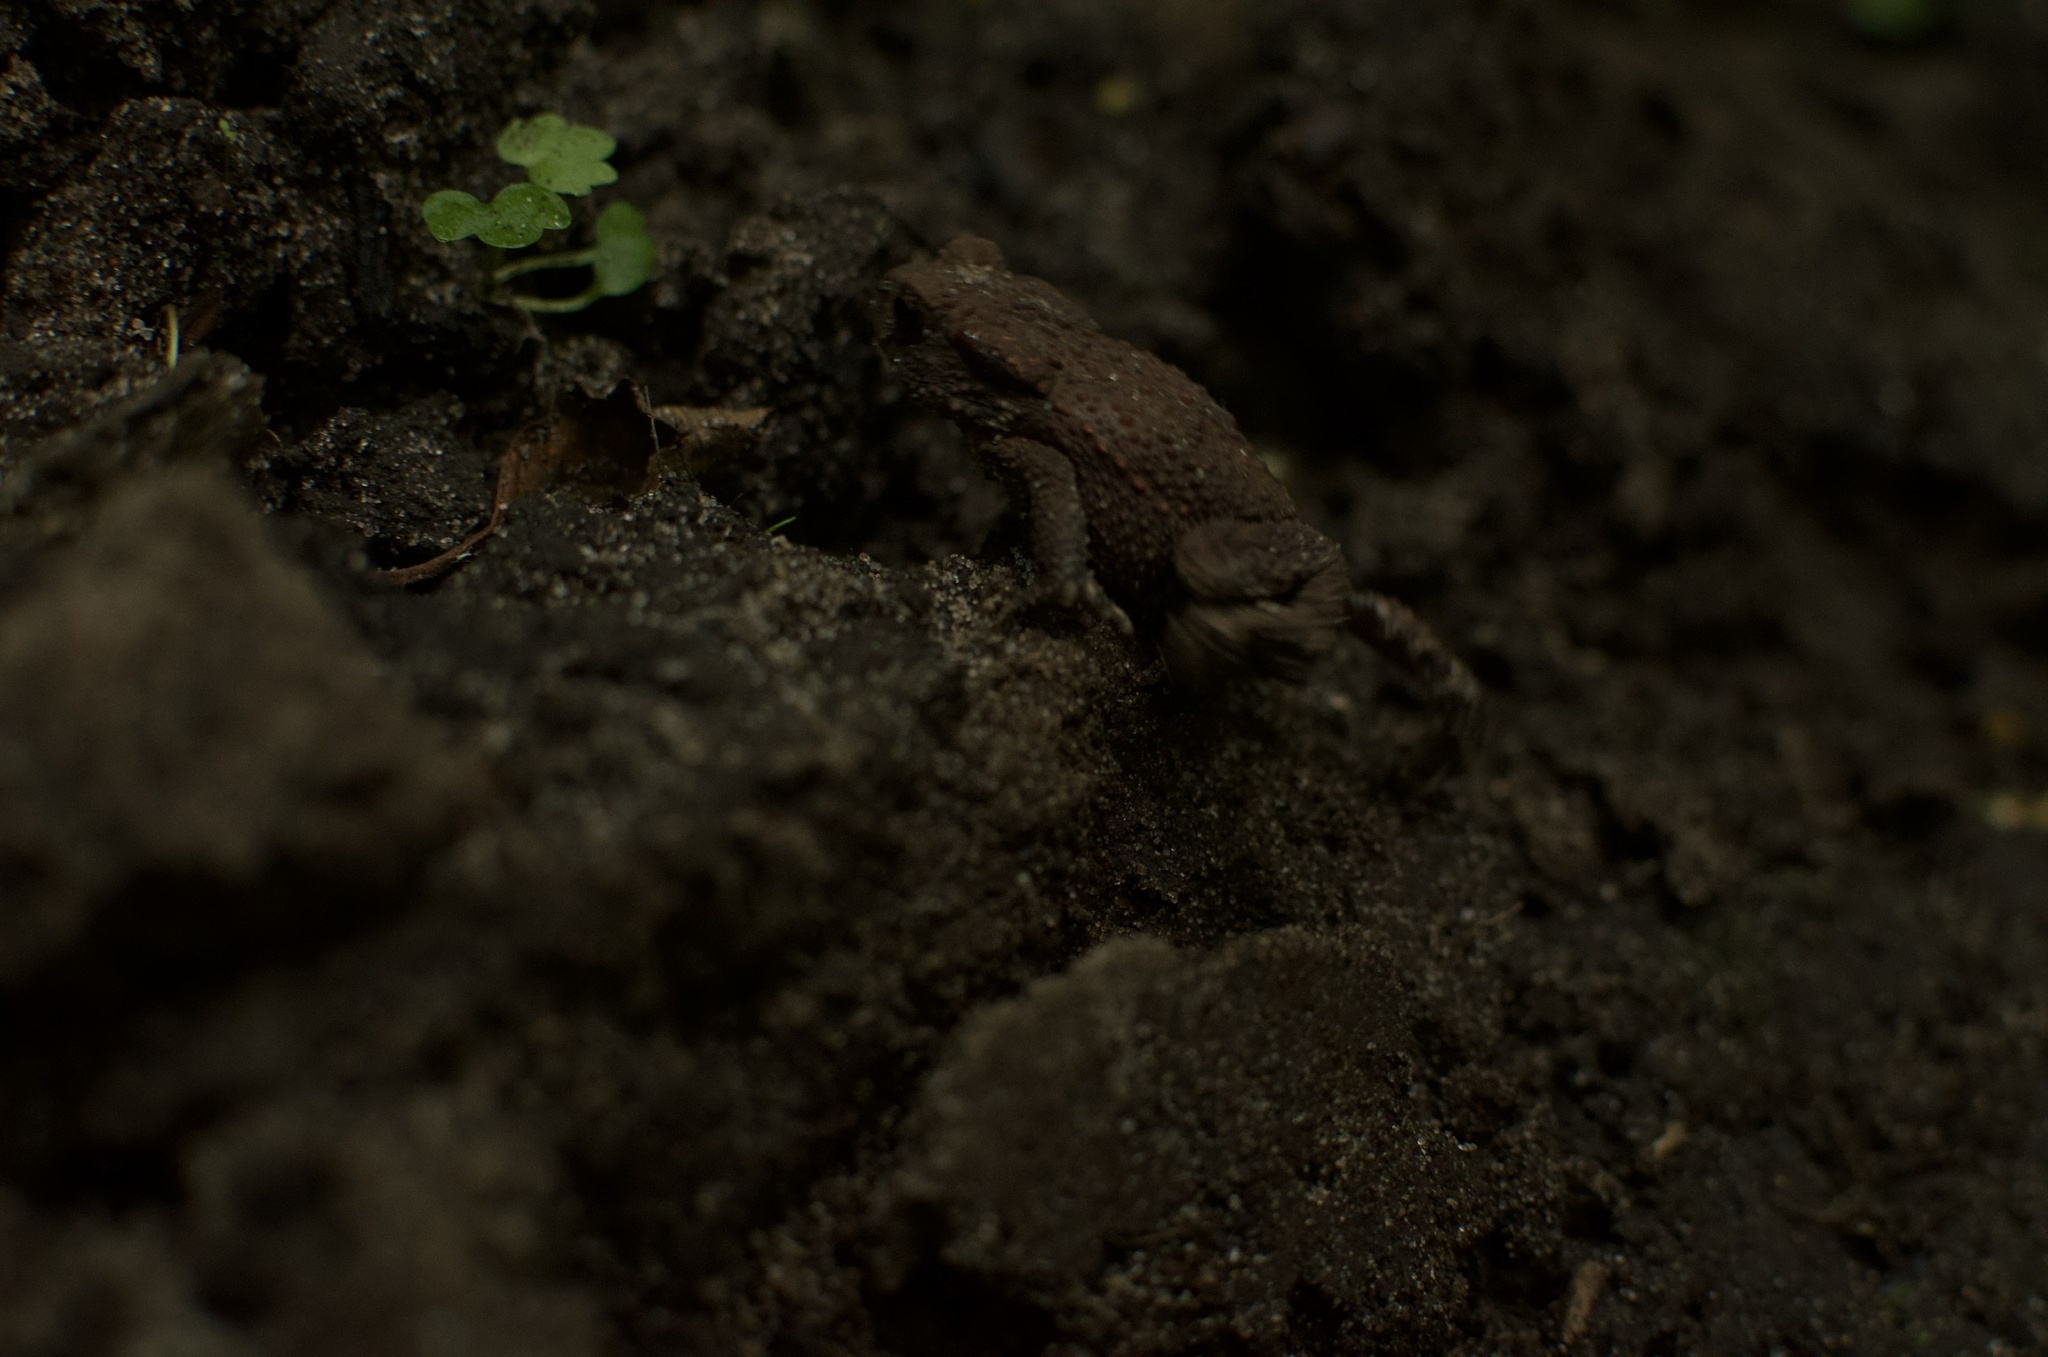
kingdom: Animalia
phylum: Chordata
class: Amphibia
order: Anura
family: Bufonidae
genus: Bufo
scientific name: Bufo bufo
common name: Common toad
